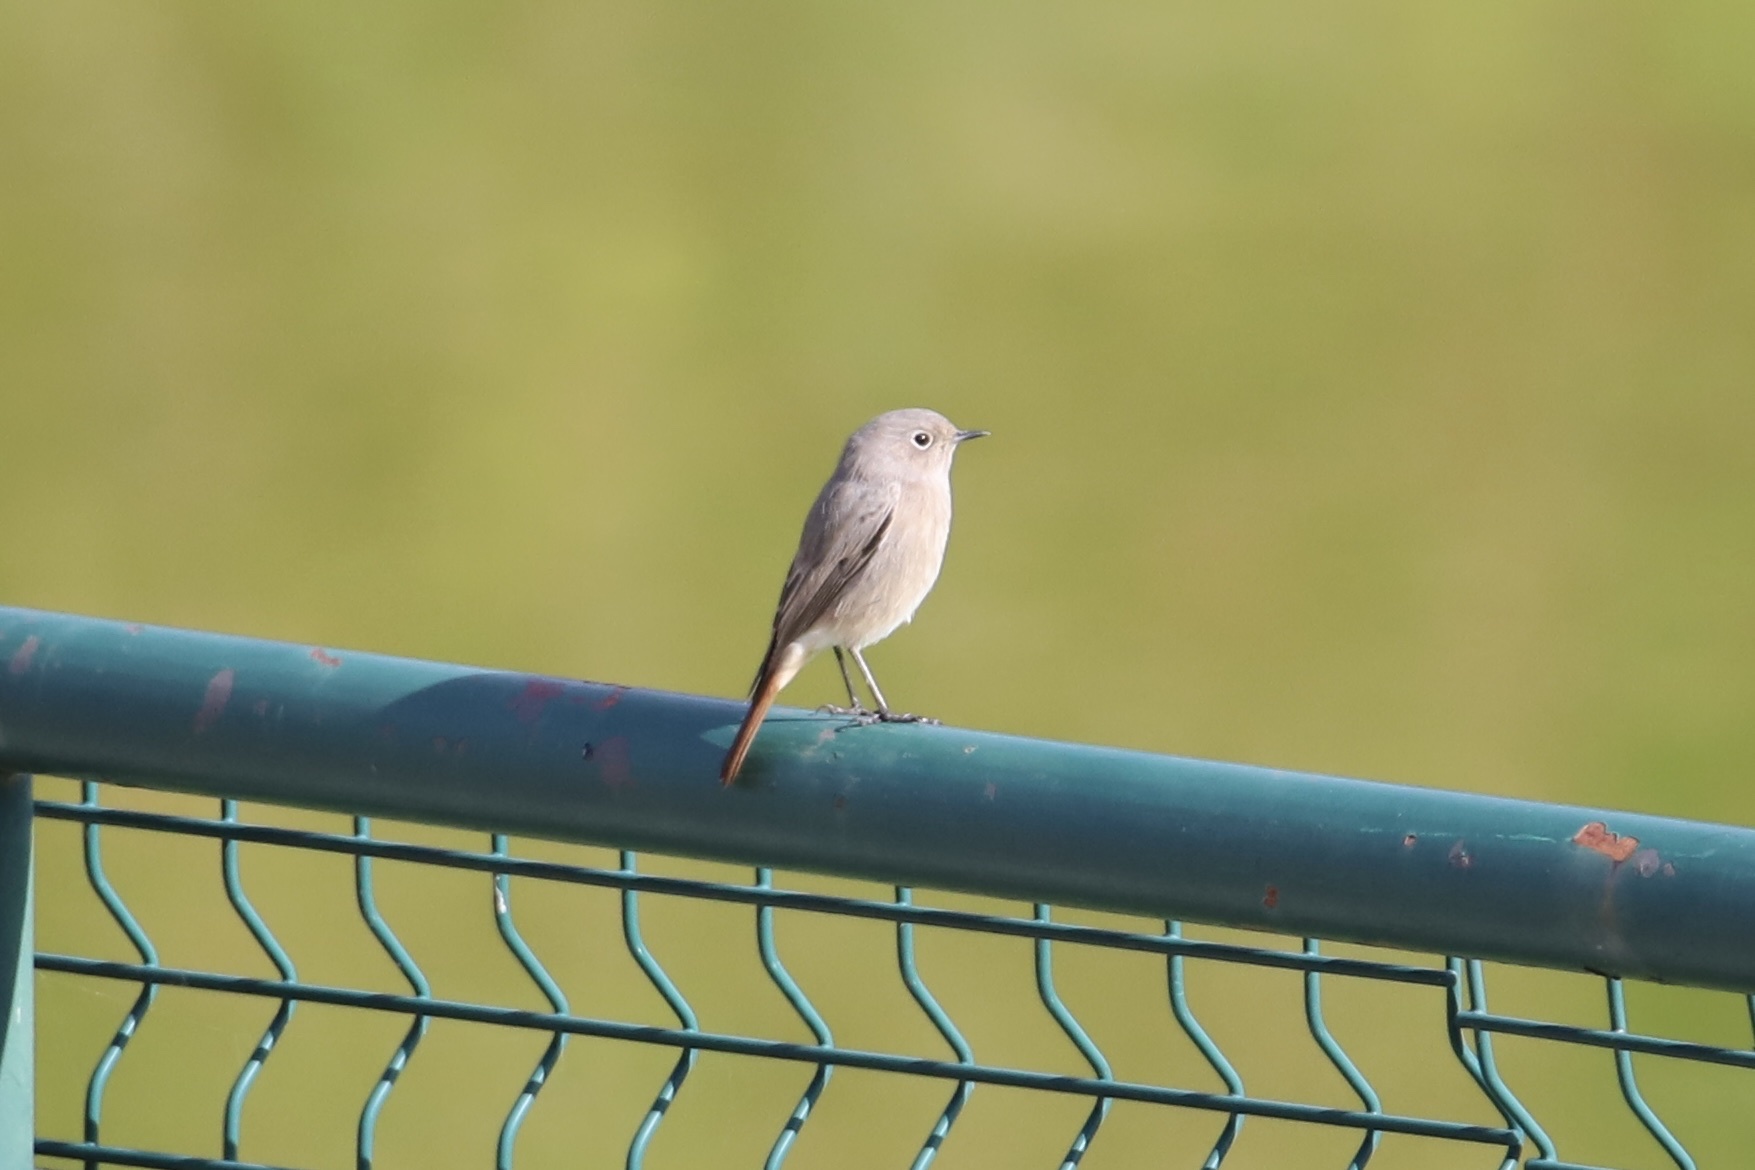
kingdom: Animalia
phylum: Chordata
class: Aves
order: Passeriformes
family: Muscicapidae
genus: Phoenicurus
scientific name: Phoenicurus ochruros
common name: Black redstart
